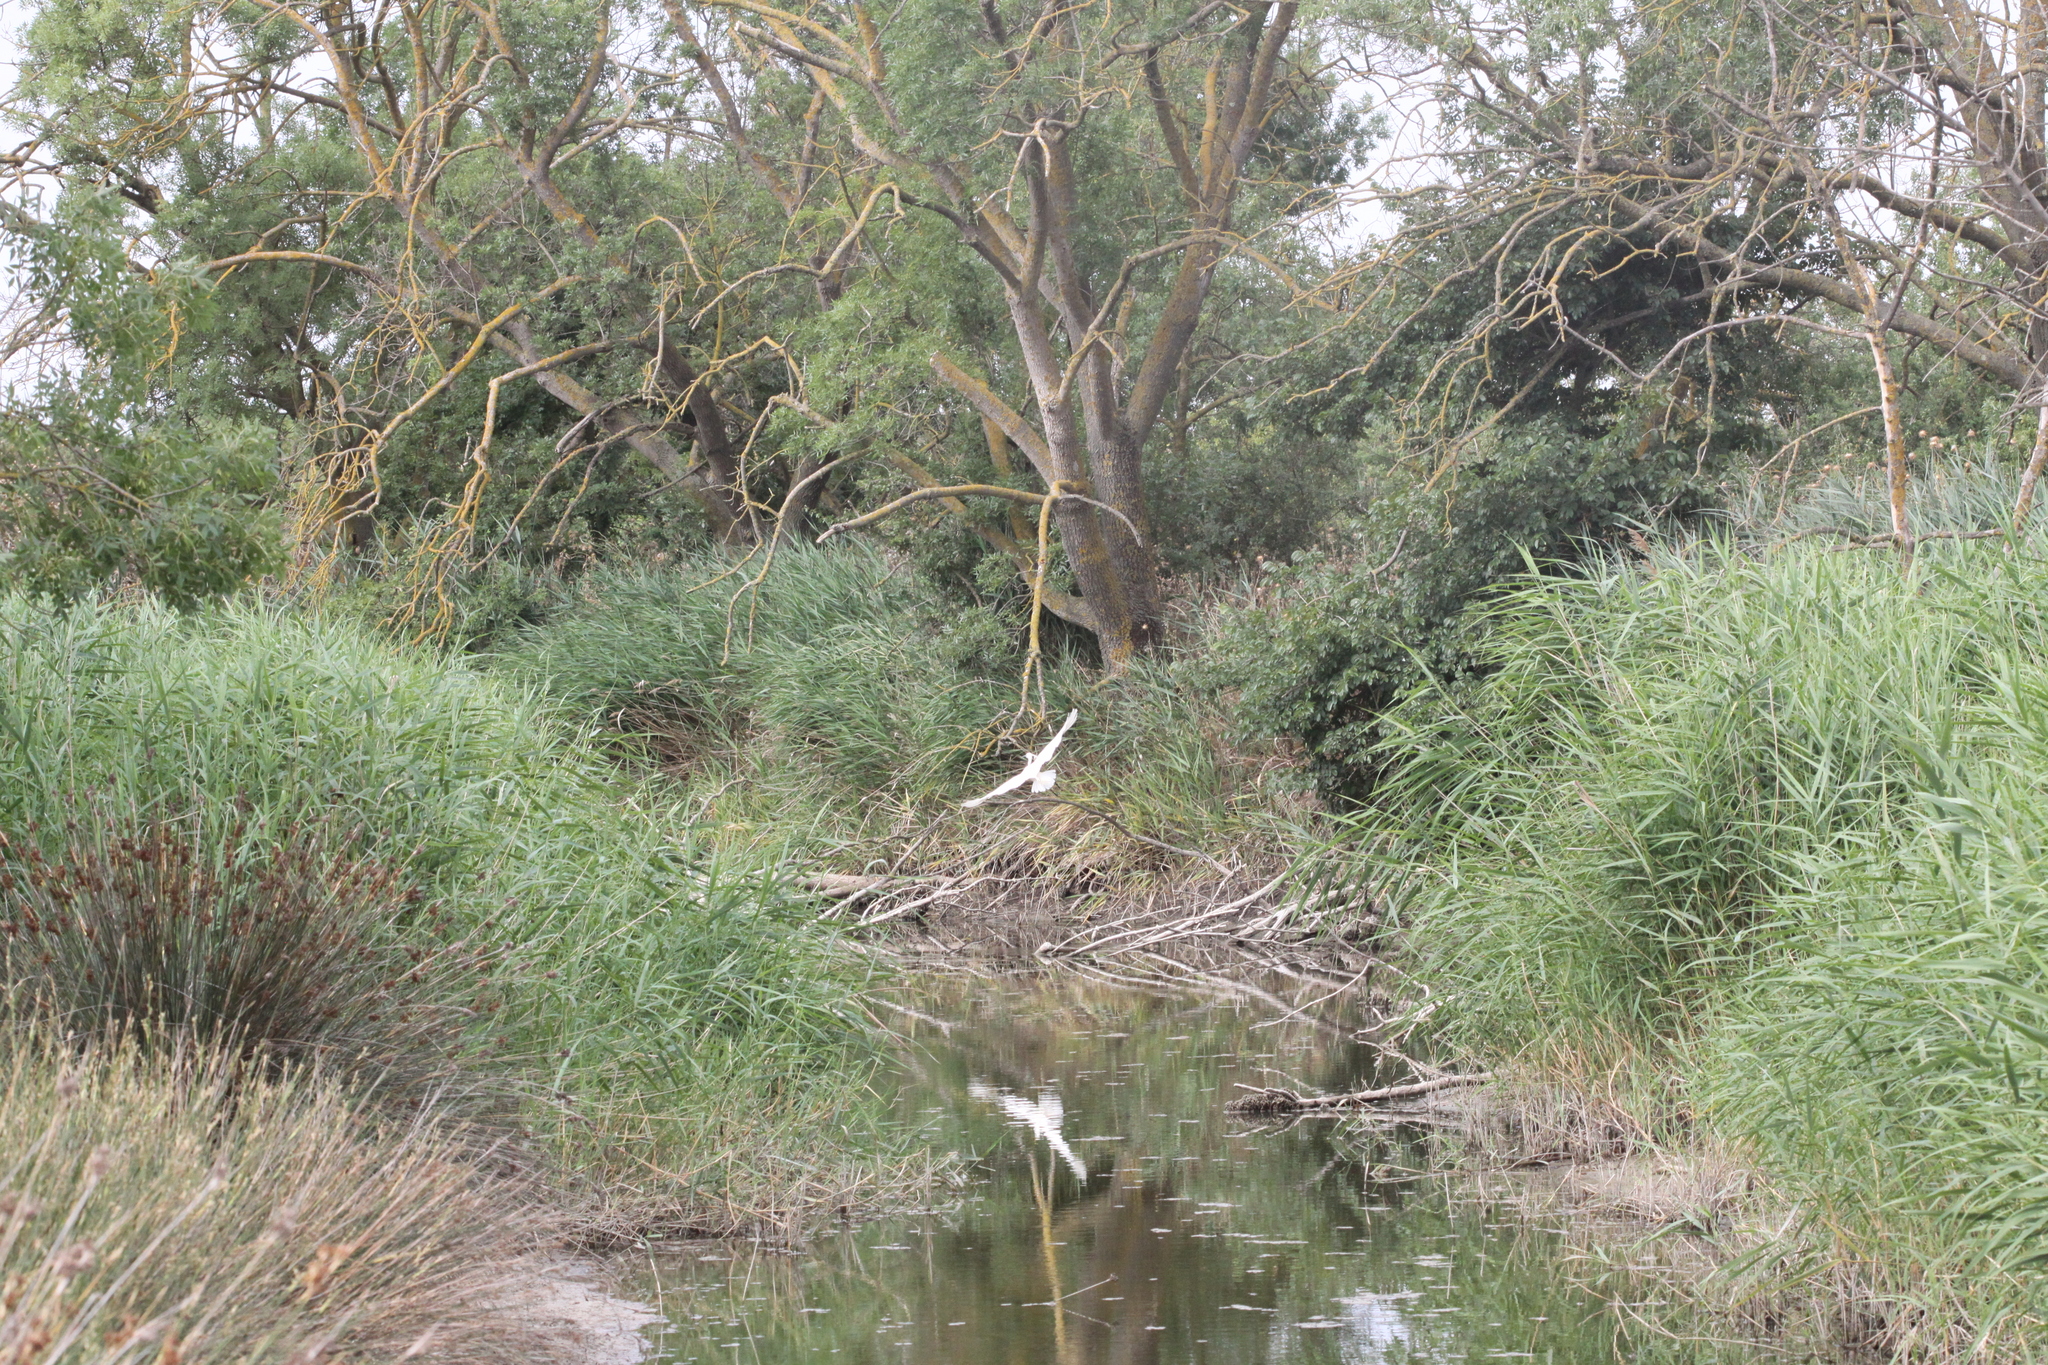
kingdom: Animalia
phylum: Chordata
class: Aves
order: Pelecaniformes
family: Ardeidae
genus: Egretta
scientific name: Egretta garzetta
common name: Little egret
